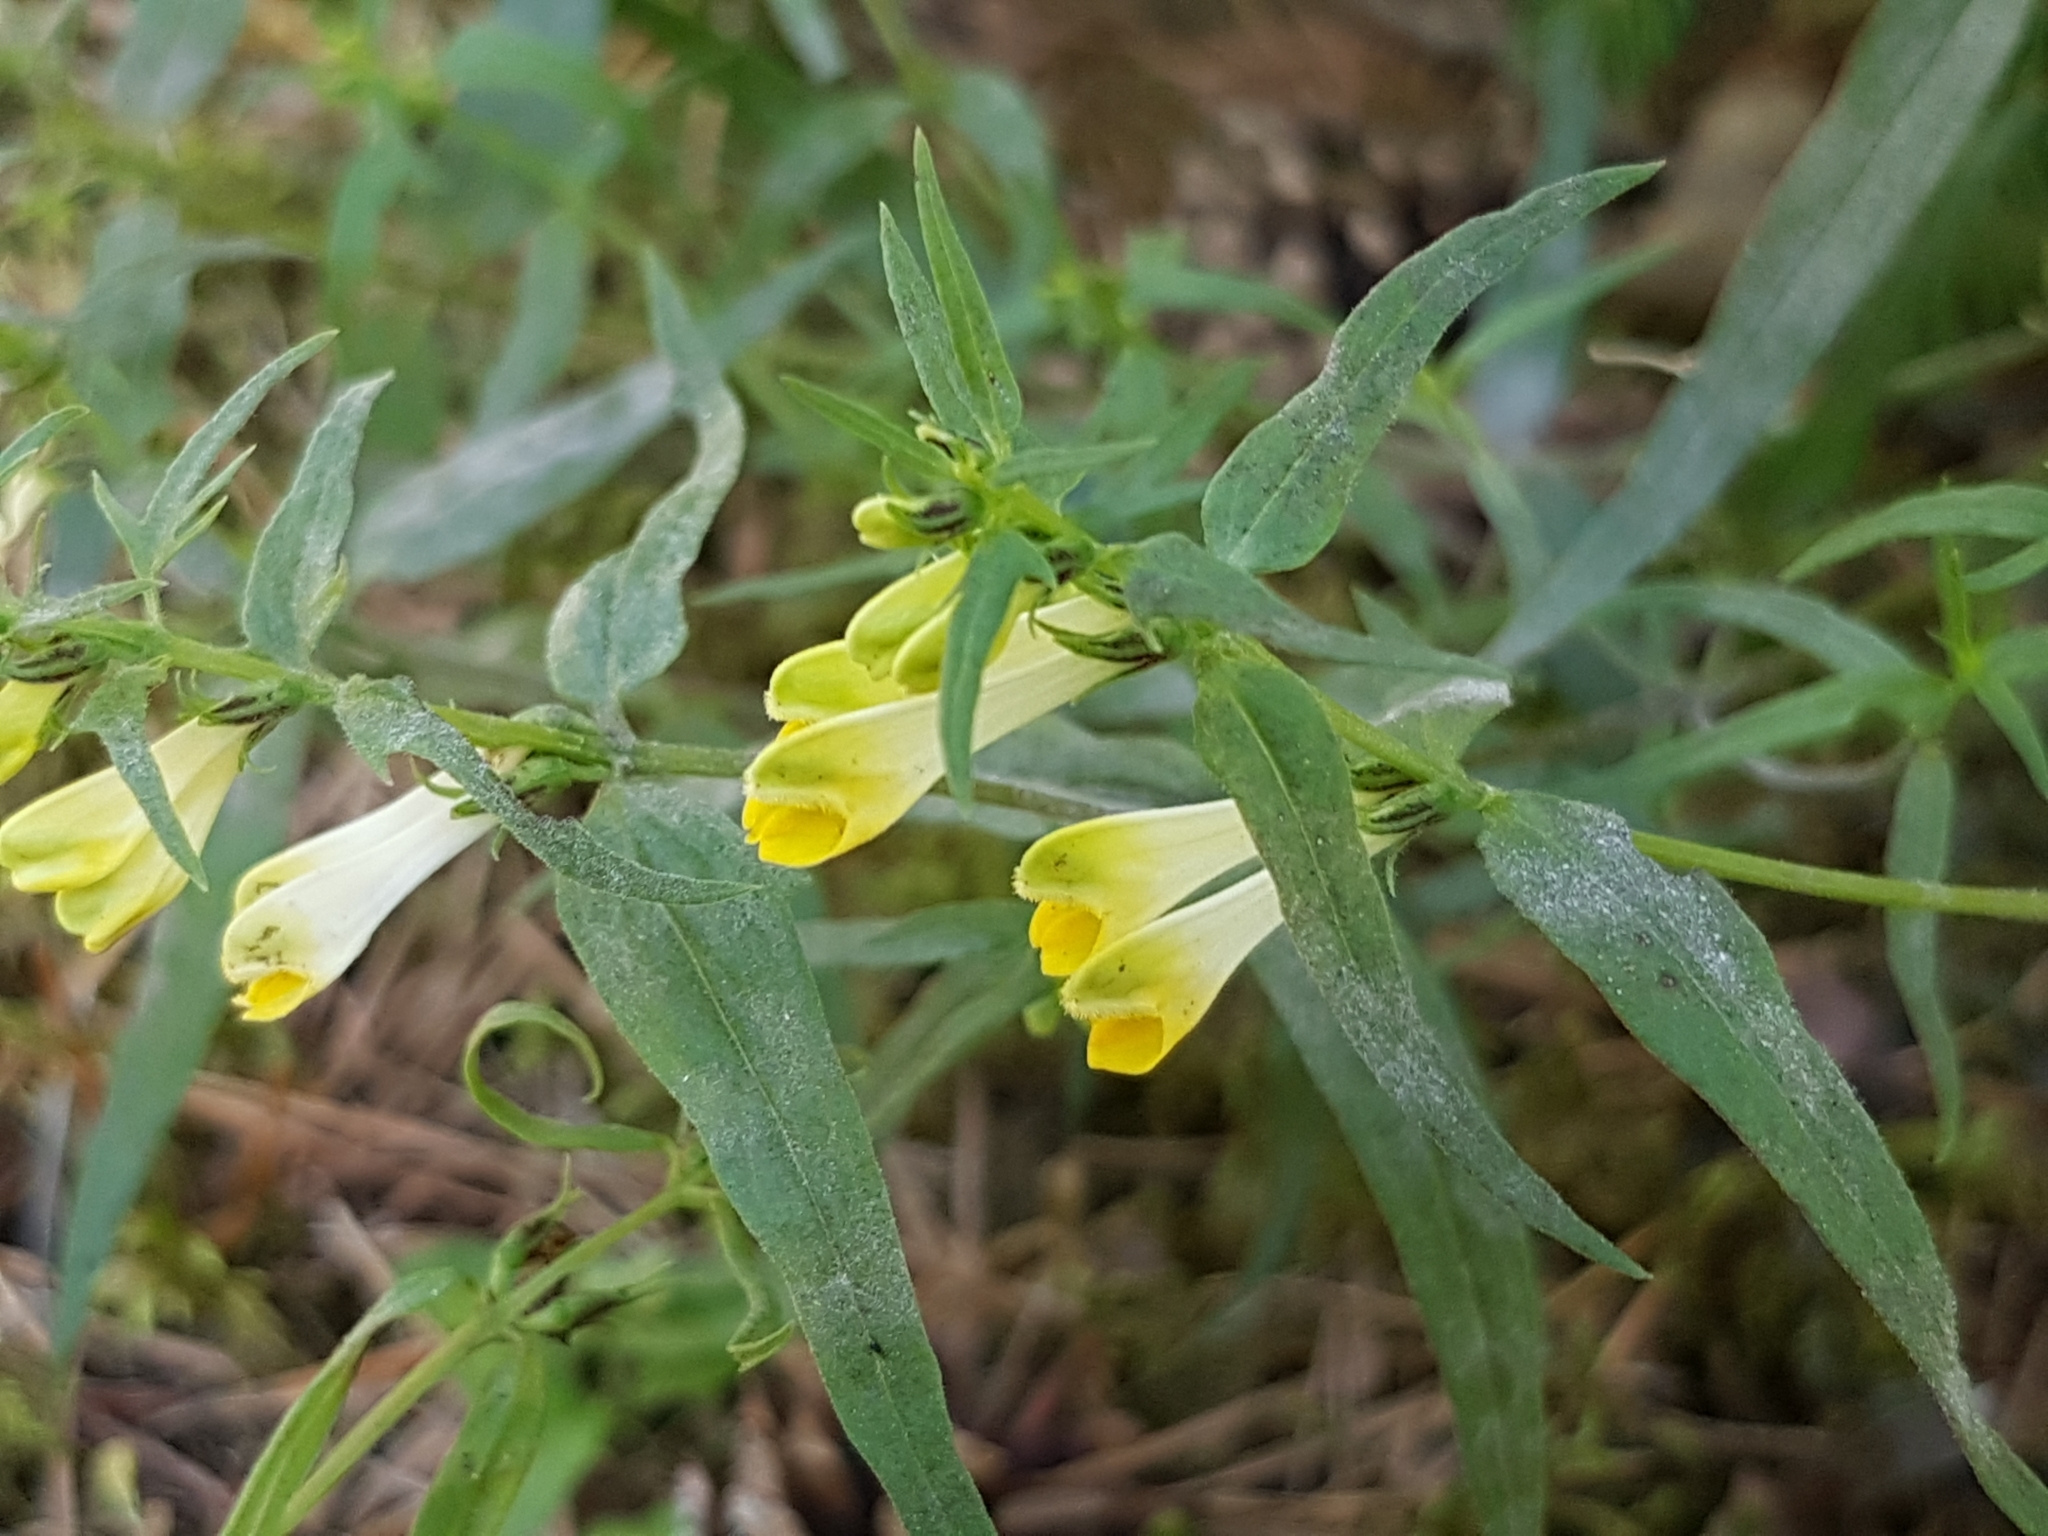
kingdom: Plantae
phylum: Tracheophyta
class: Magnoliopsida
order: Lamiales
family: Orobanchaceae
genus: Melampyrum
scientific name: Melampyrum pratense
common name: Common cow-wheat
